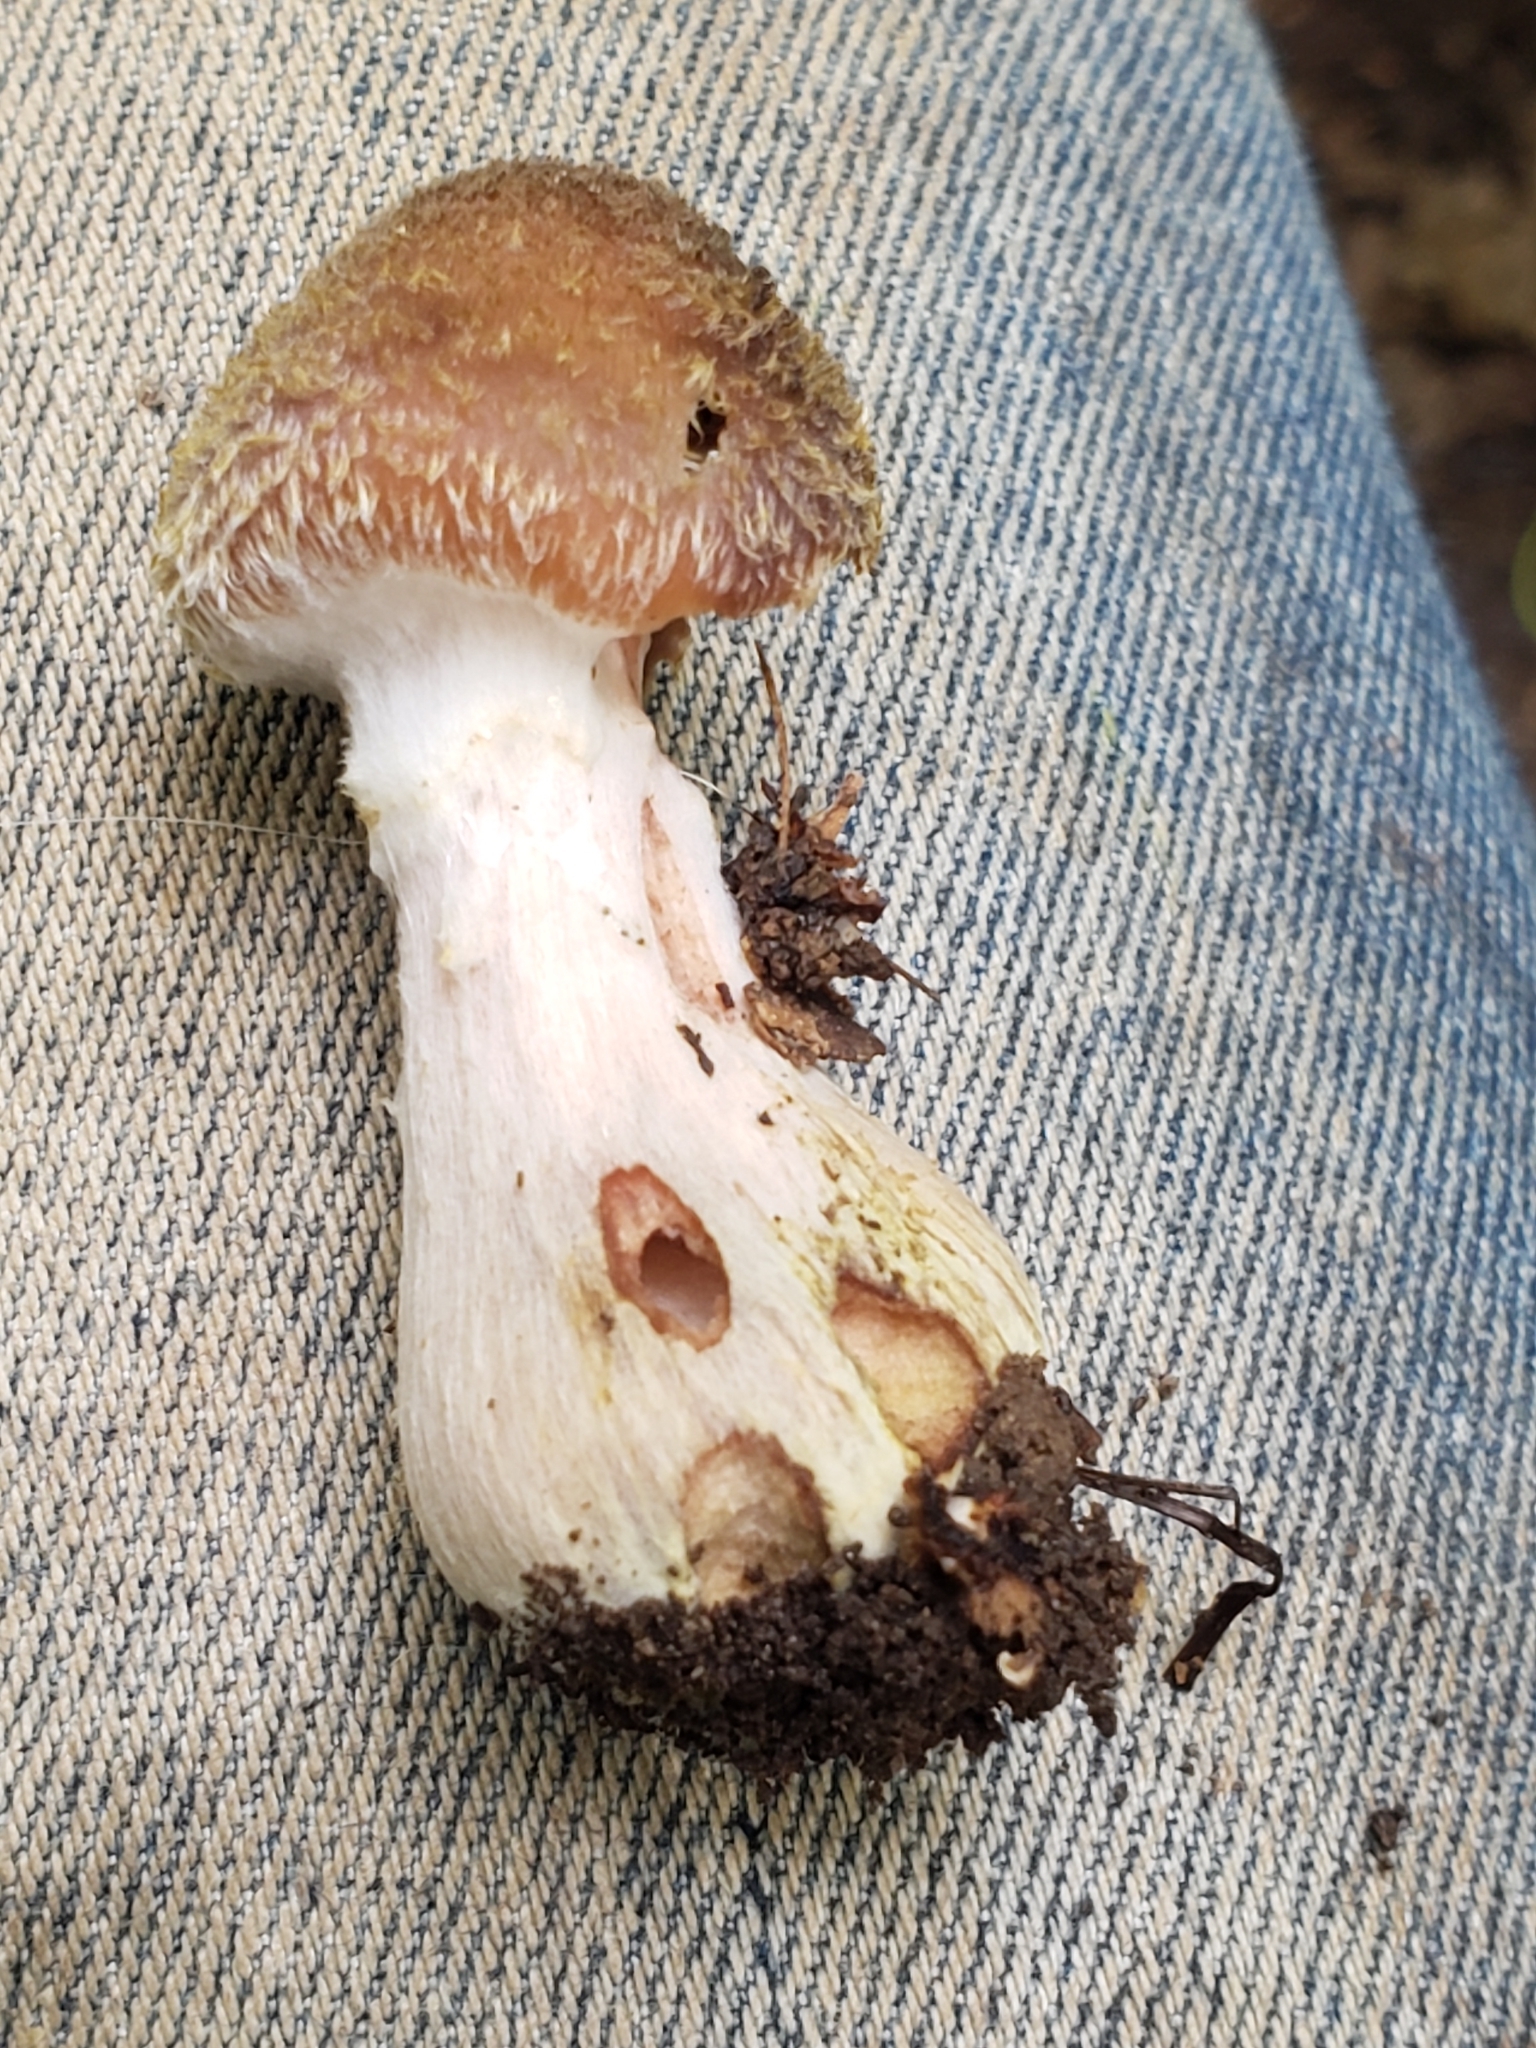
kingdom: Fungi
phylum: Basidiomycota
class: Agaricomycetes
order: Agaricales
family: Physalacriaceae
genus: Armillaria
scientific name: Armillaria gallica
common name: Bulbous honey fungus
